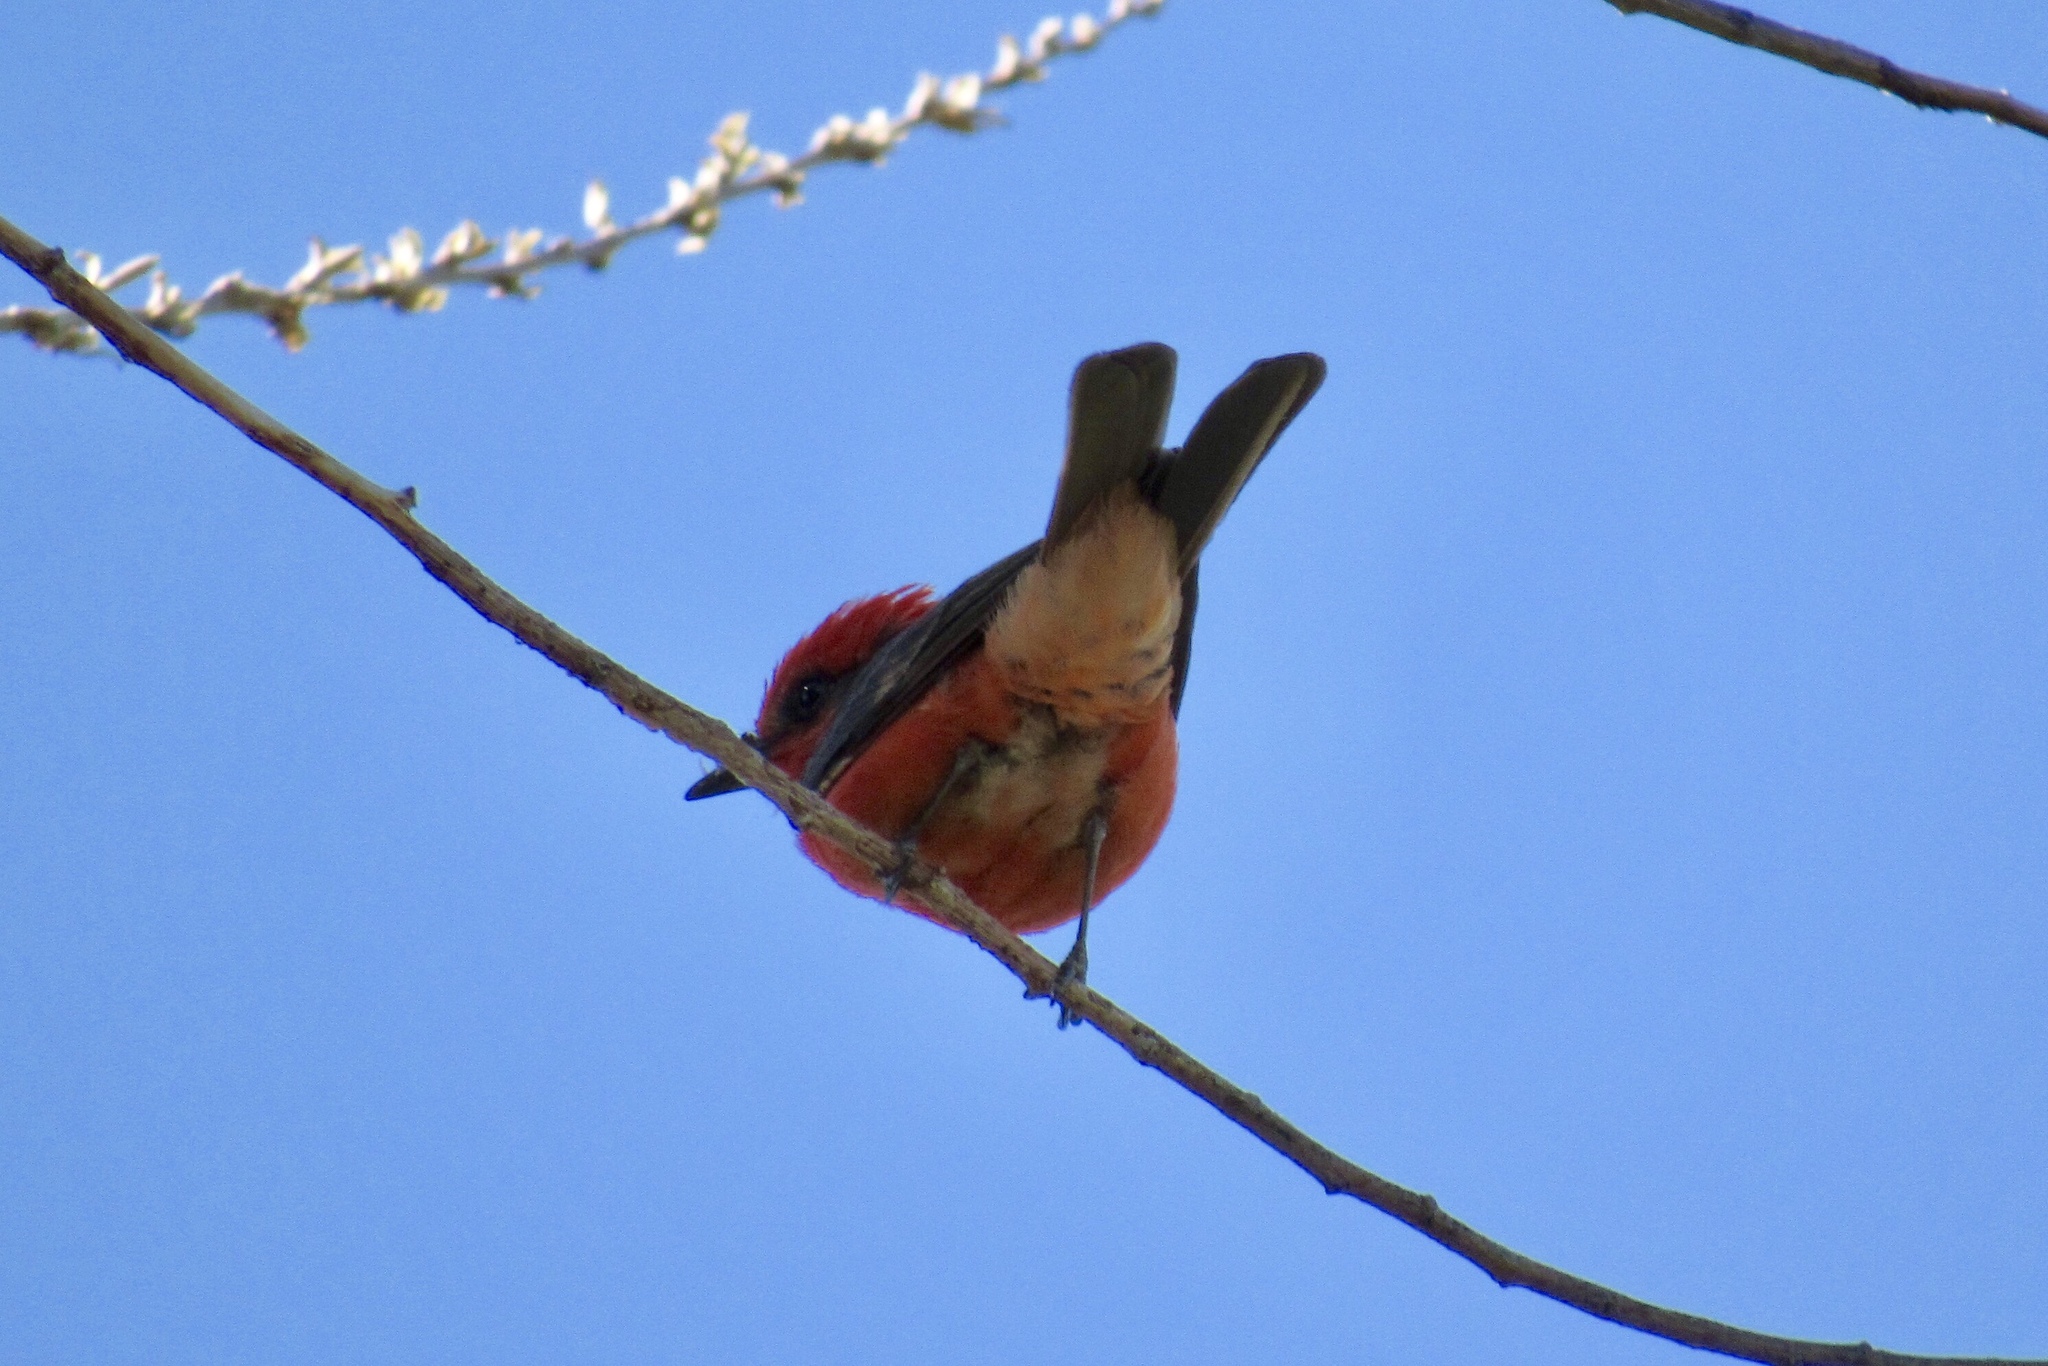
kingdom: Animalia
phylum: Chordata
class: Aves
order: Passeriformes
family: Tyrannidae
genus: Pyrocephalus
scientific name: Pyrocephalus rubinus
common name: Vermilion flycatcher
